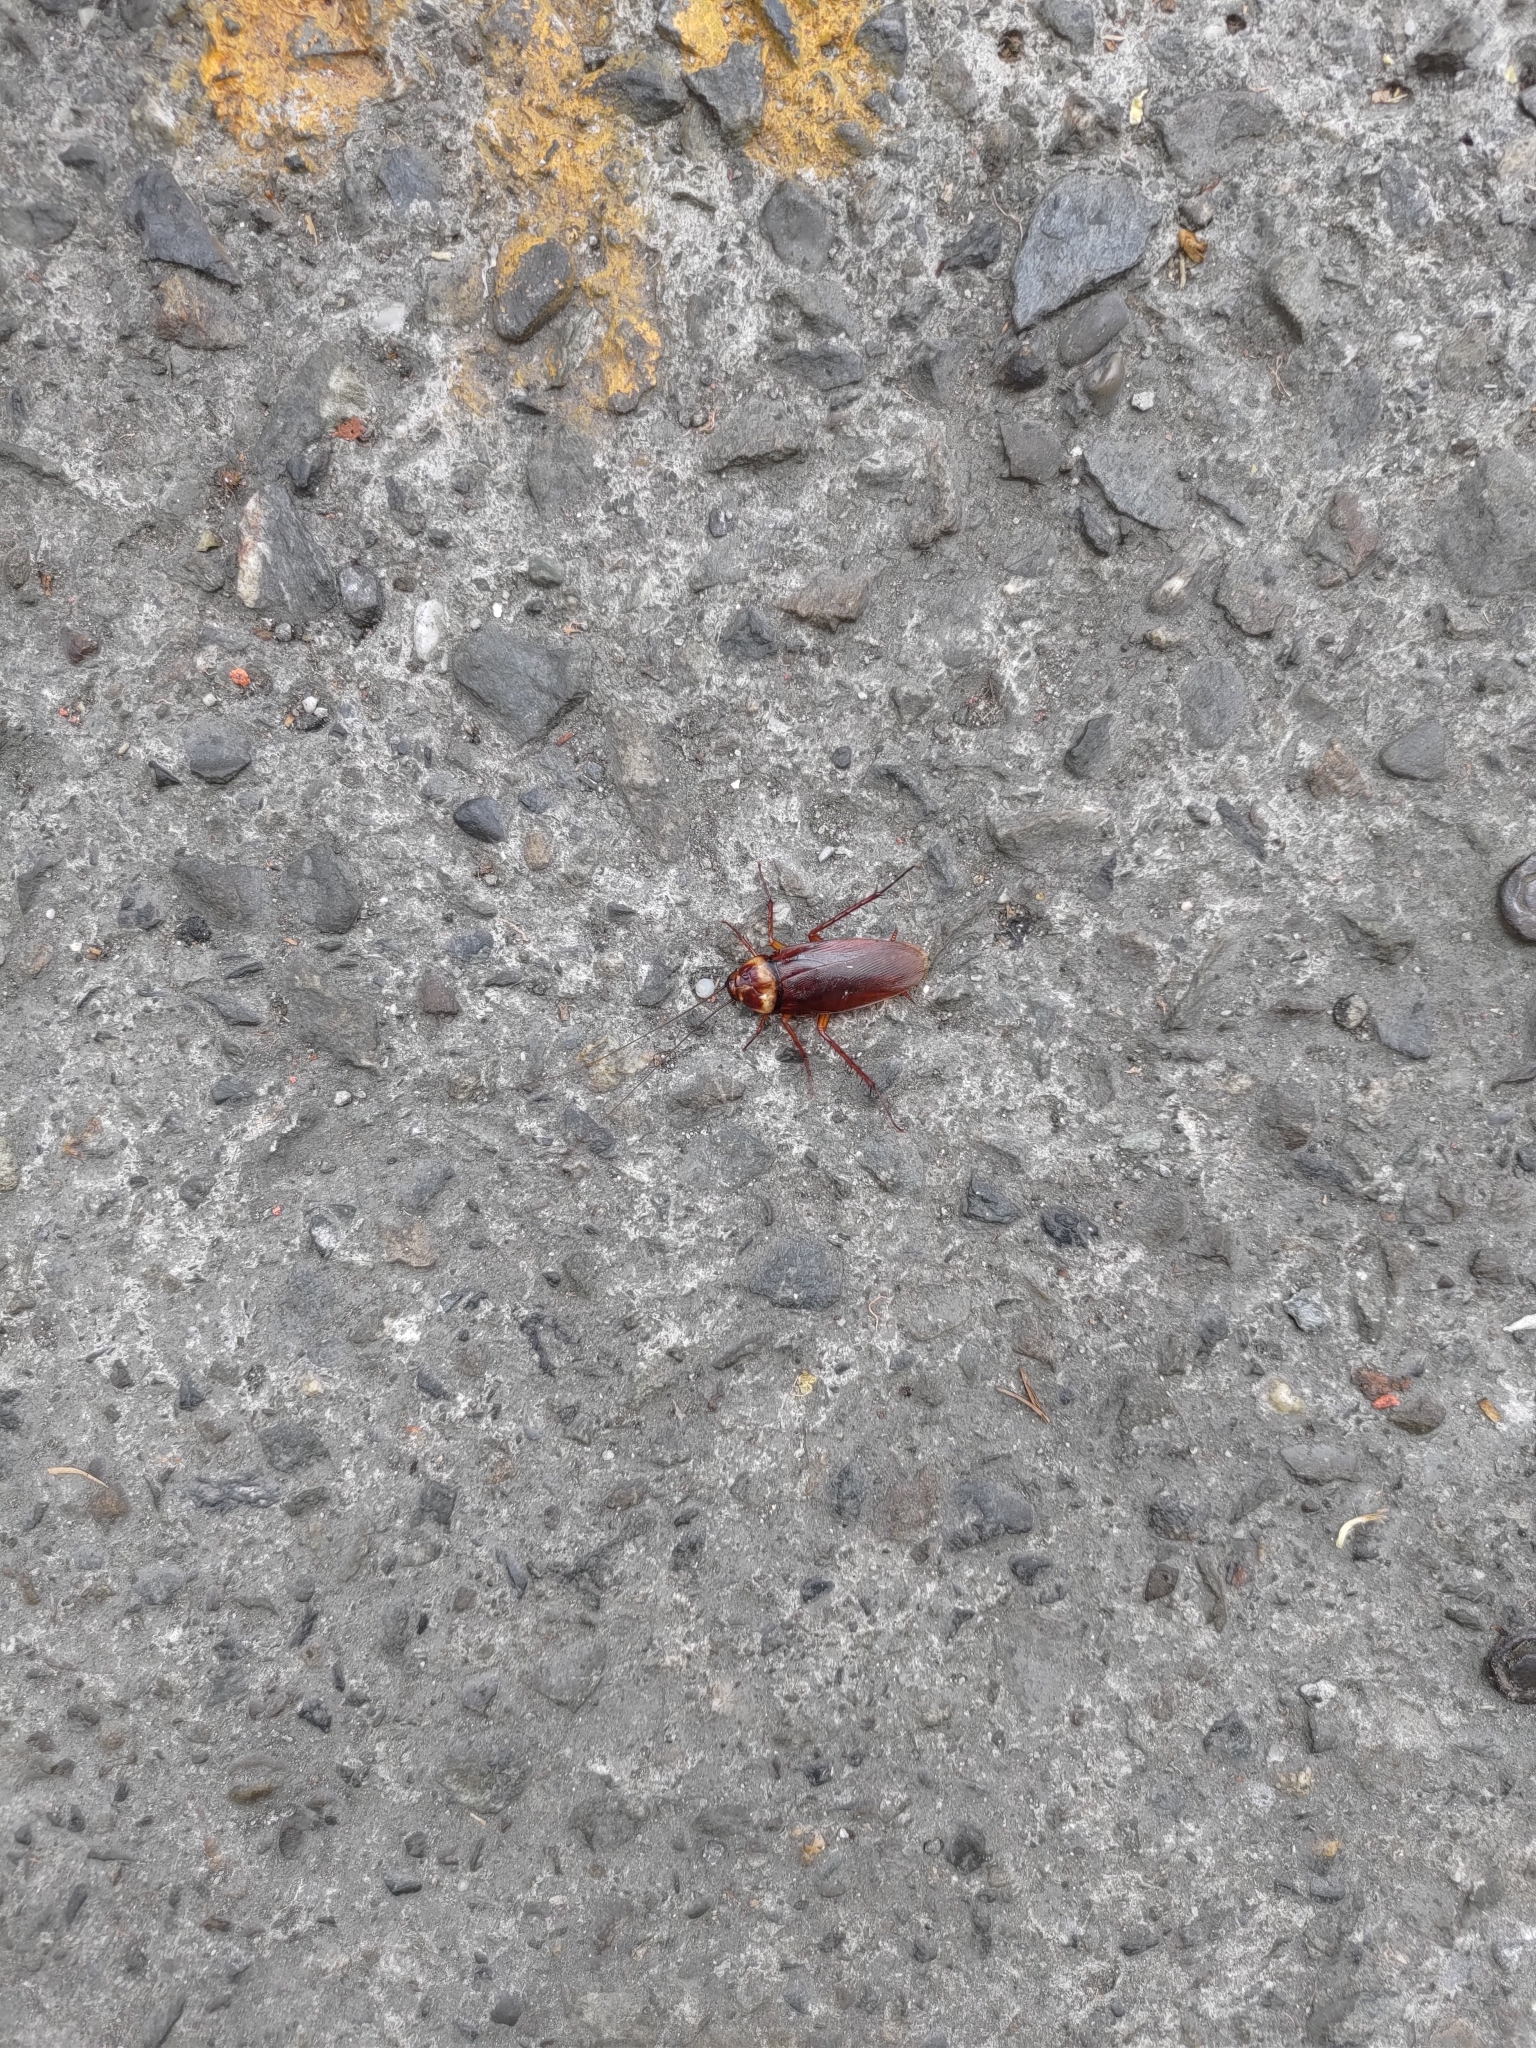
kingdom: Animalia
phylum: Arthropoda
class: Insecta
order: Blattodea
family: Blattidae
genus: Periplaneta
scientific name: Periplaneta americana
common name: American cockroach
